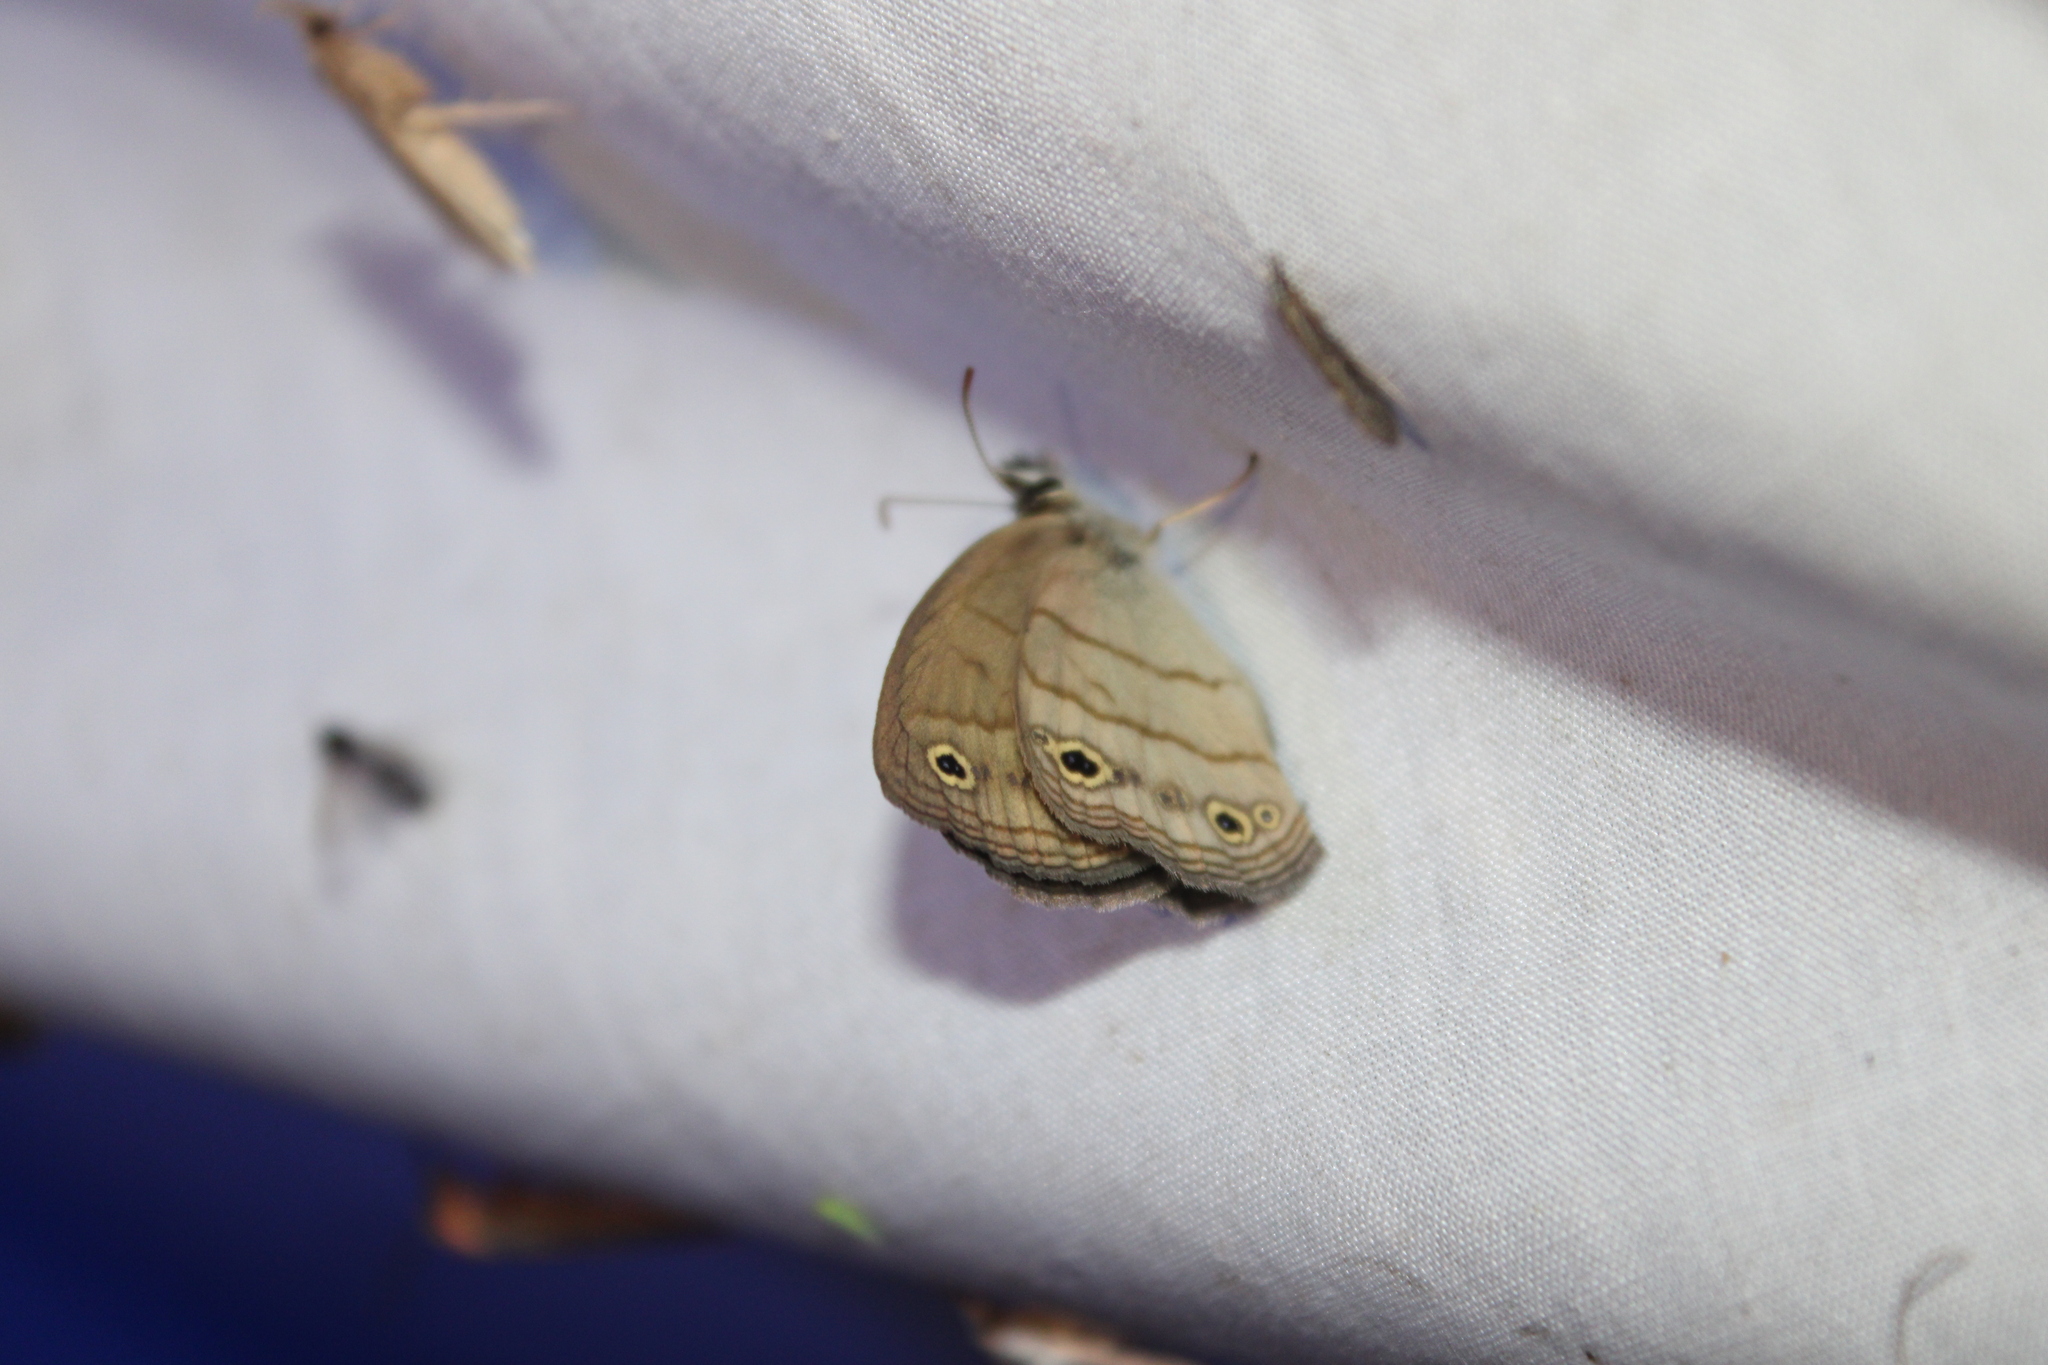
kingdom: Animalia
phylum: Arthropoda
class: Insecta
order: Lepidoptera
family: Nymphalidae
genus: Euptychia
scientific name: Euptychia cymela
